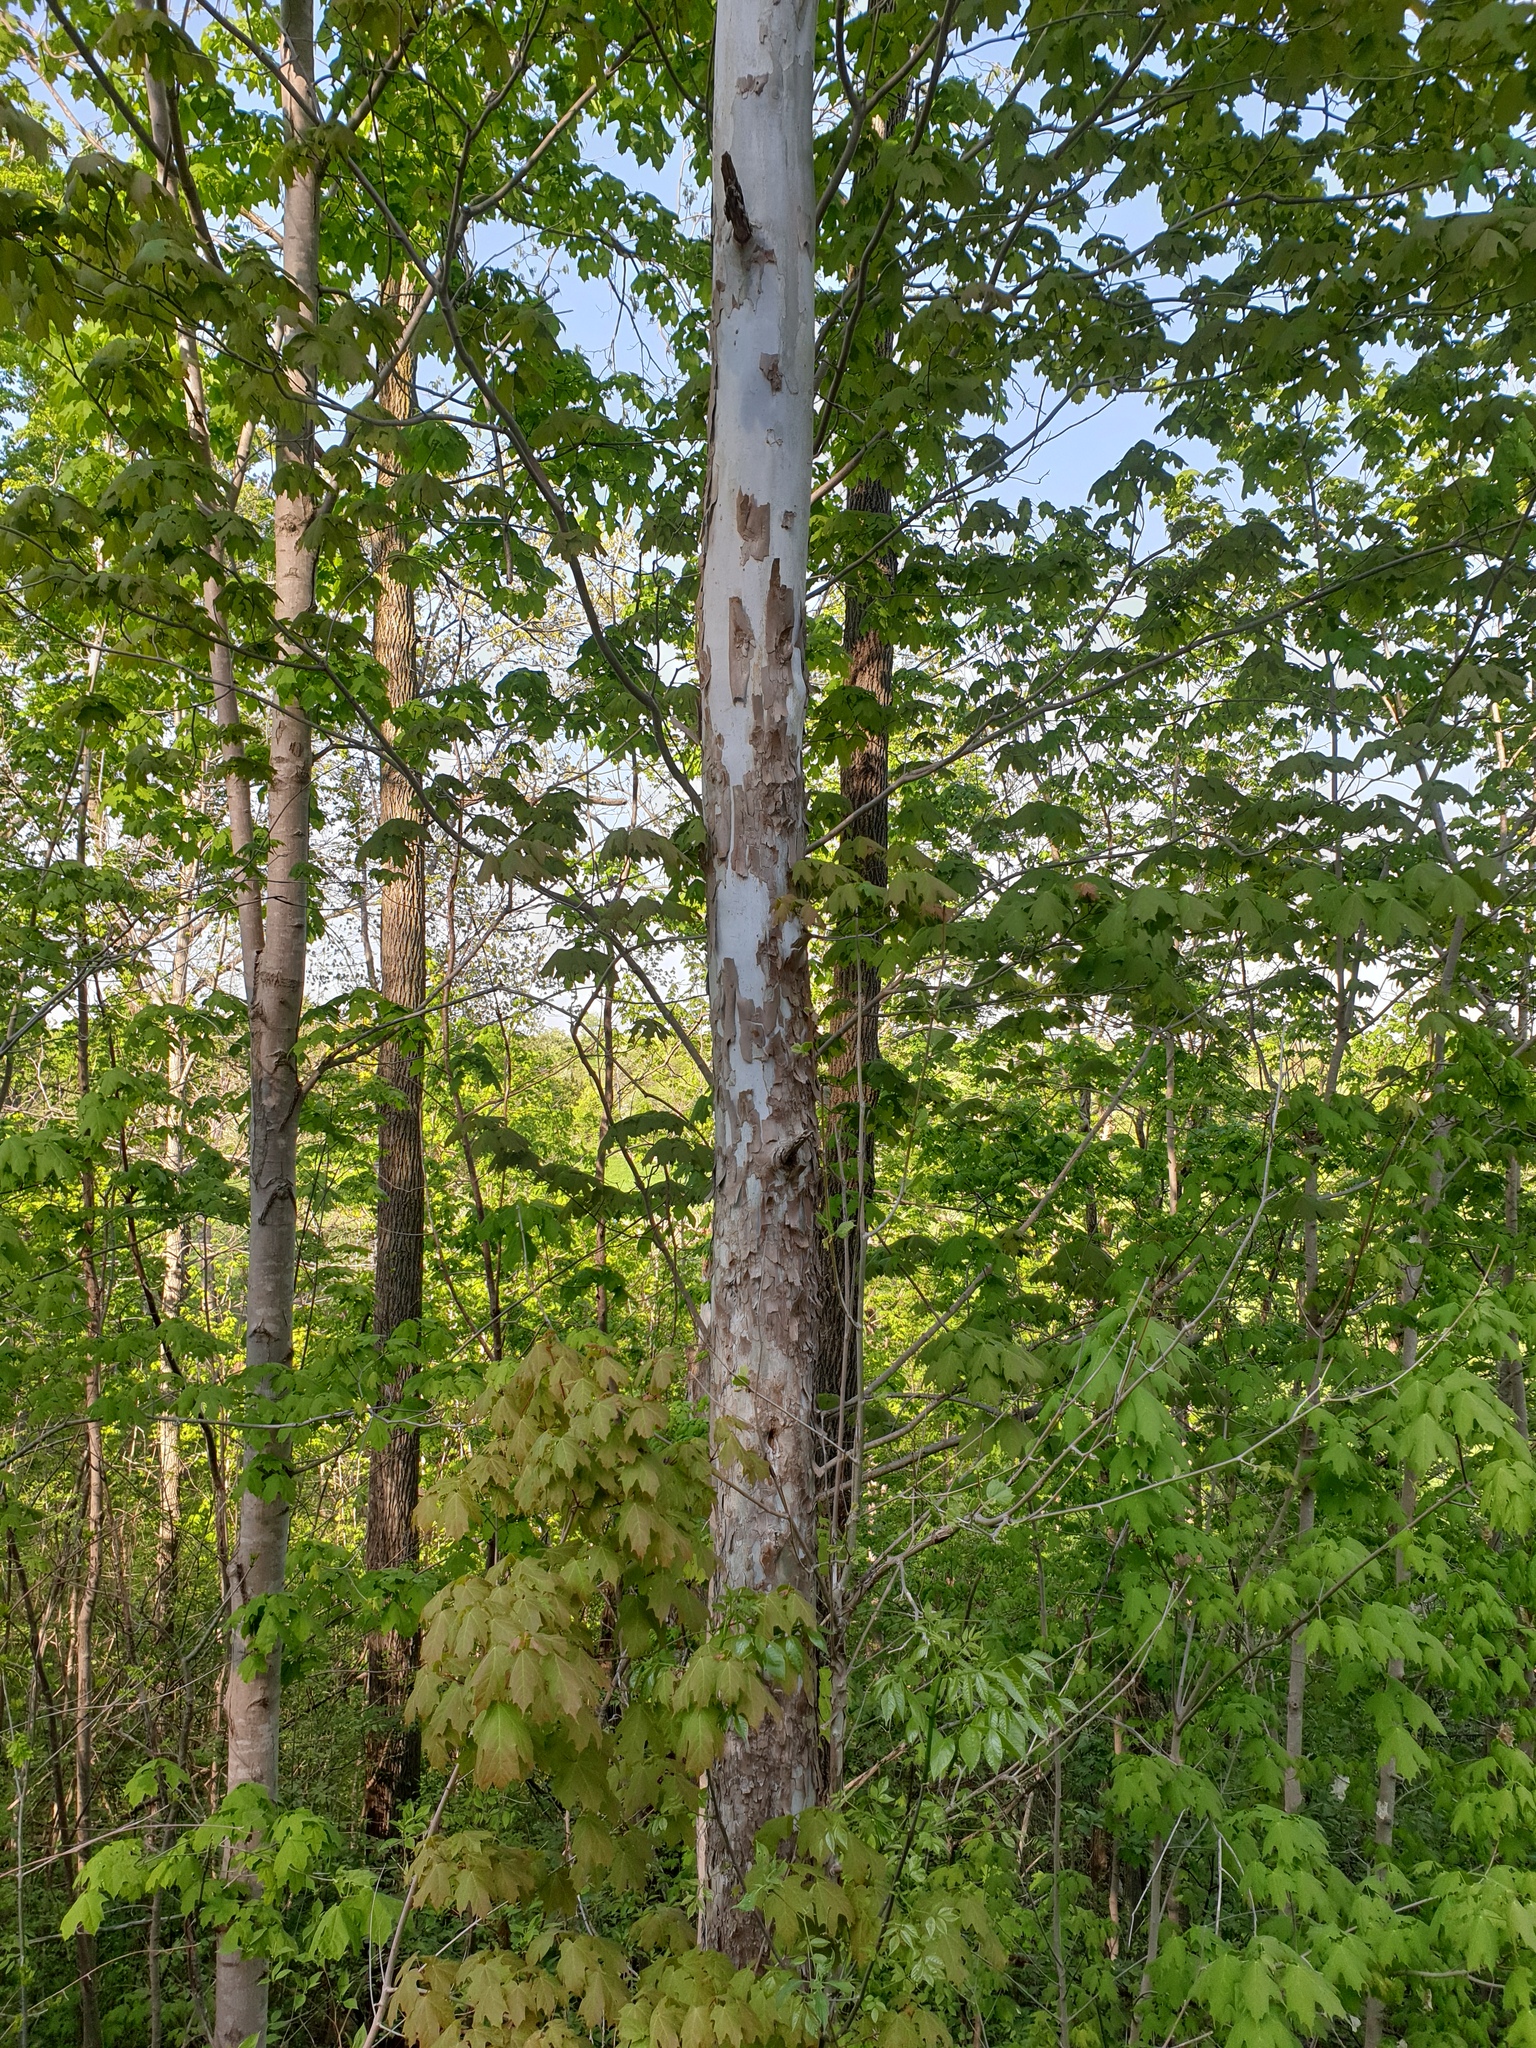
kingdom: Plantae
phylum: Tracheophyta
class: Magnoliopsida
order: Proteales
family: Platanaceae
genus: Platanus
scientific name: Platanus occidentalis
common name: American sycamore
